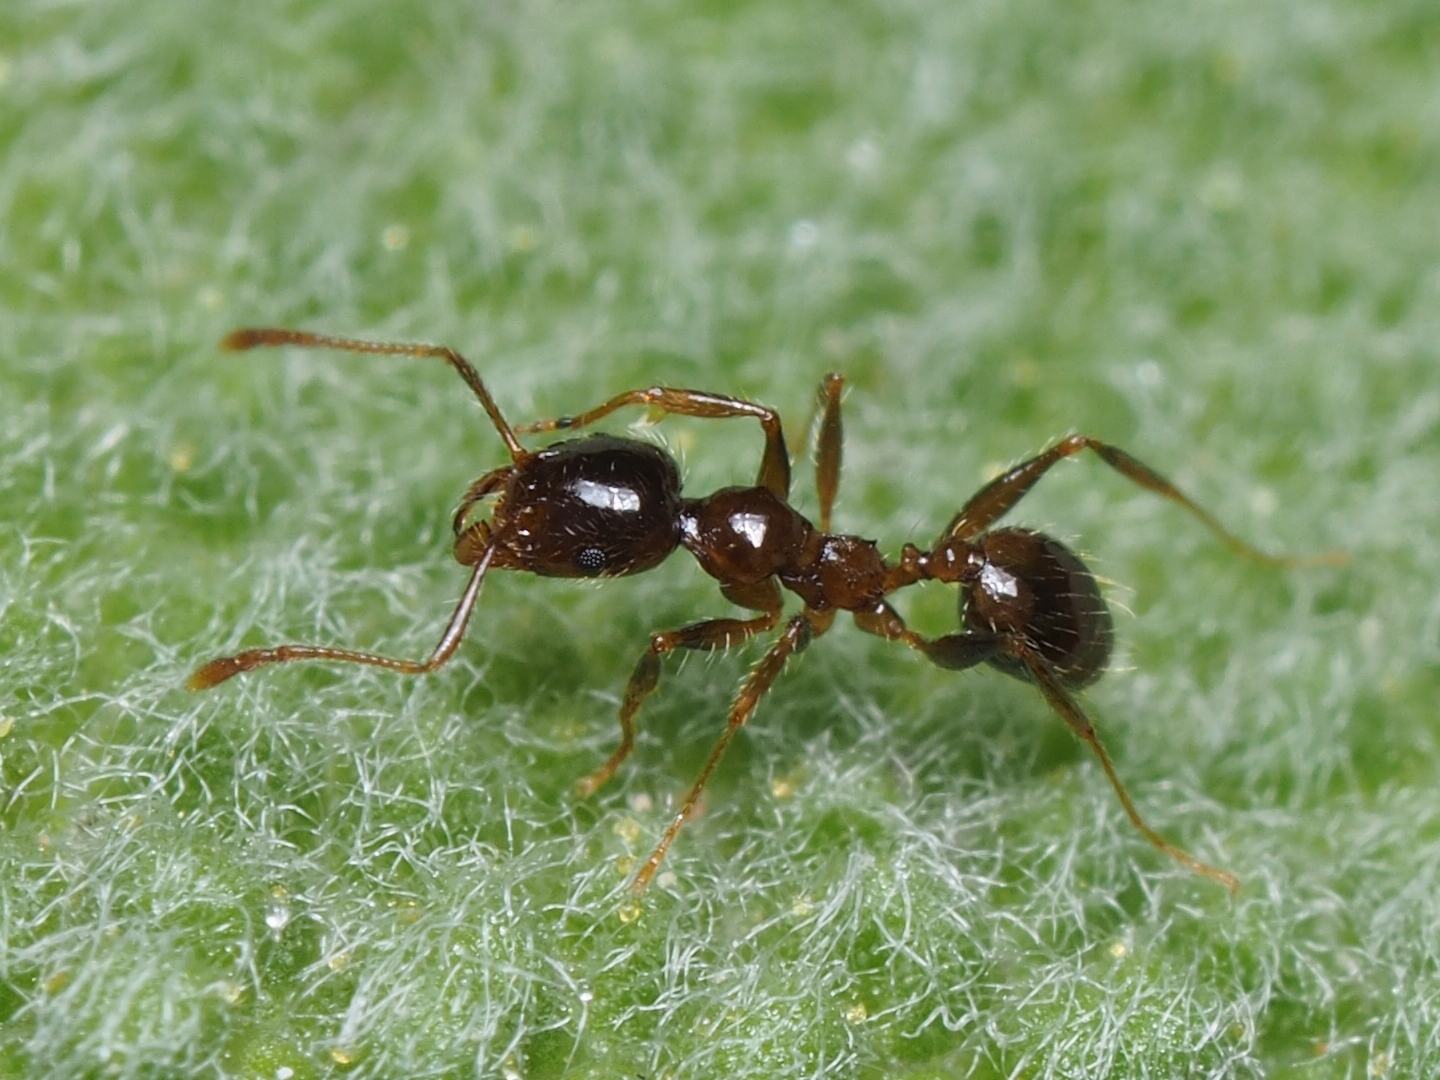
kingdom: Animalia
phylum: Arthropoda
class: Insecta
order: Hymenoptera
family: Formicidae
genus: Pheidole
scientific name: Pheidole pallidula
